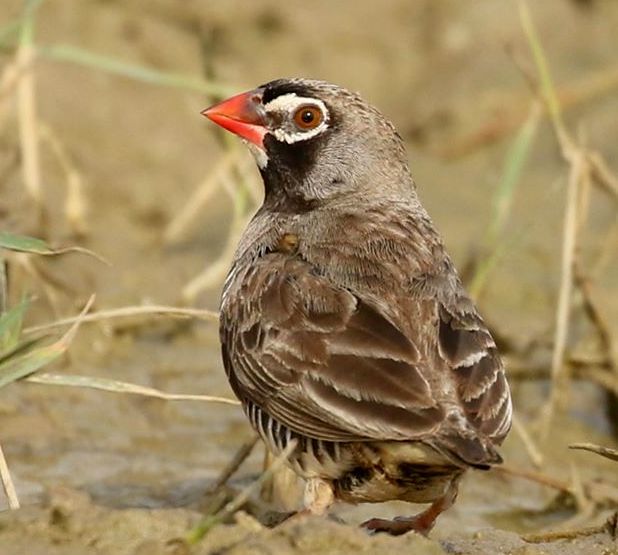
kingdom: Animalia
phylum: Chordata
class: Aves
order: Passeriformes
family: Estrildidae
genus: Ortygospiza
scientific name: Ortygospiza atricollis
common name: Quailfinch
